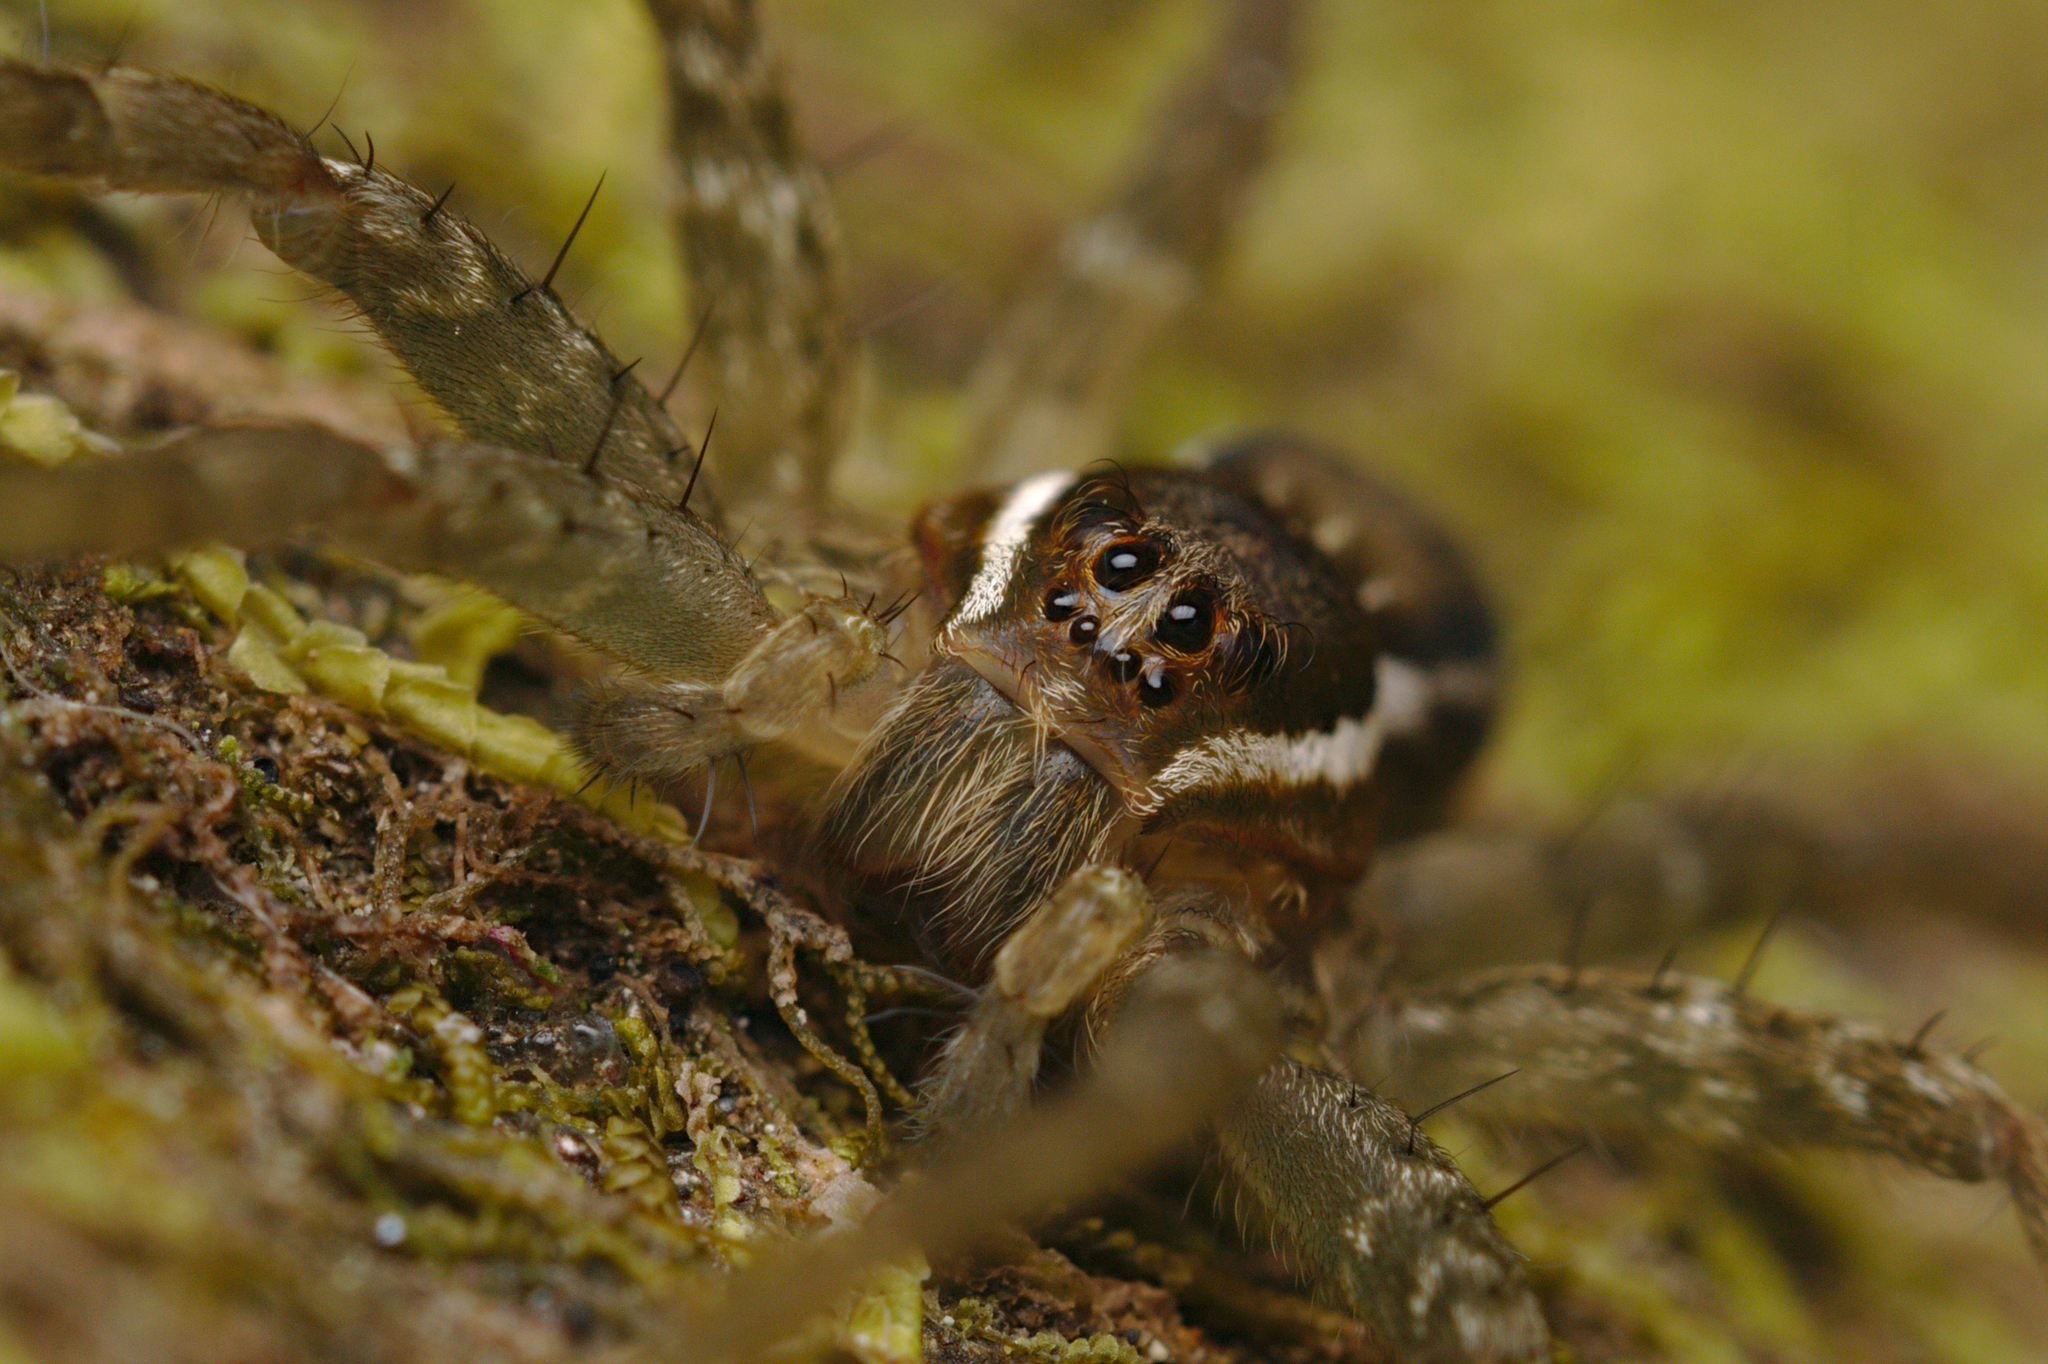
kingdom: Animalia
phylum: Arthropoda
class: Arachnida
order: Araneae
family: Pisauridae
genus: Dolomedes
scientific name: Dolomedes dondalei
